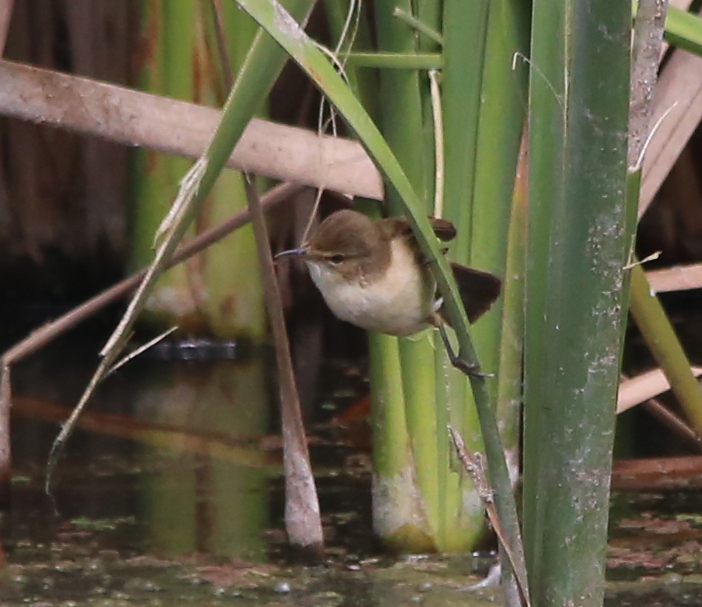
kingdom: Animalia
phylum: Chordata
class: Aves
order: Passeriformes
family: Acrocephalidae
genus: Acrocephalus
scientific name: Acrocephalus australis
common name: Australian reed warbler
